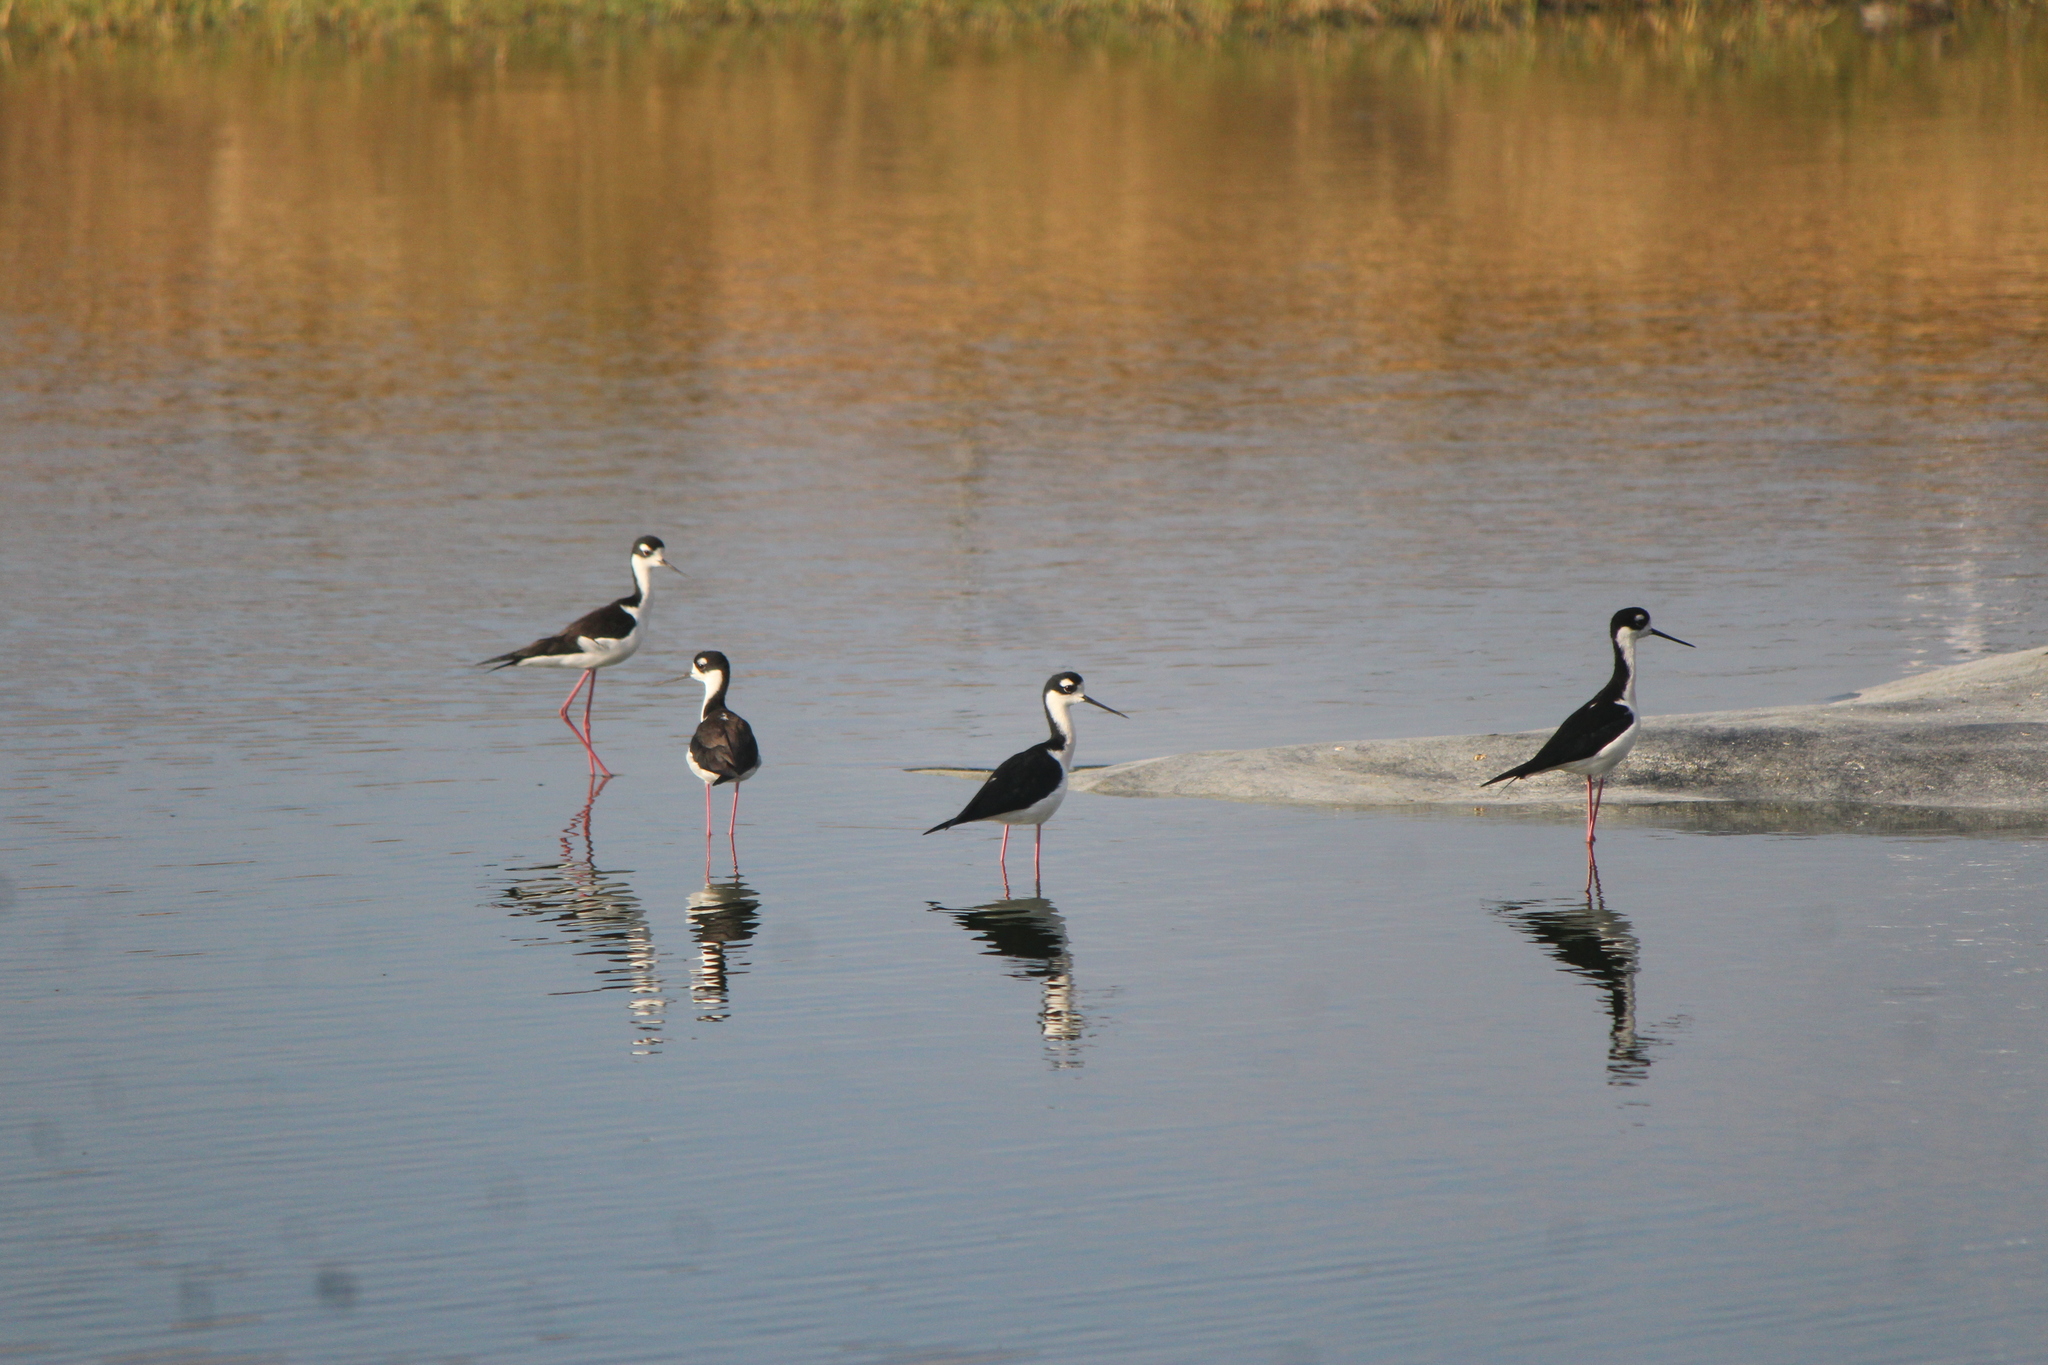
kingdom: Animalia
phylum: Chordata
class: Aves
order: Charadriiformes
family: Recurvirostridae
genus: Himantopus
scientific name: Himantopus mexicanus
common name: Black-necked stilt
